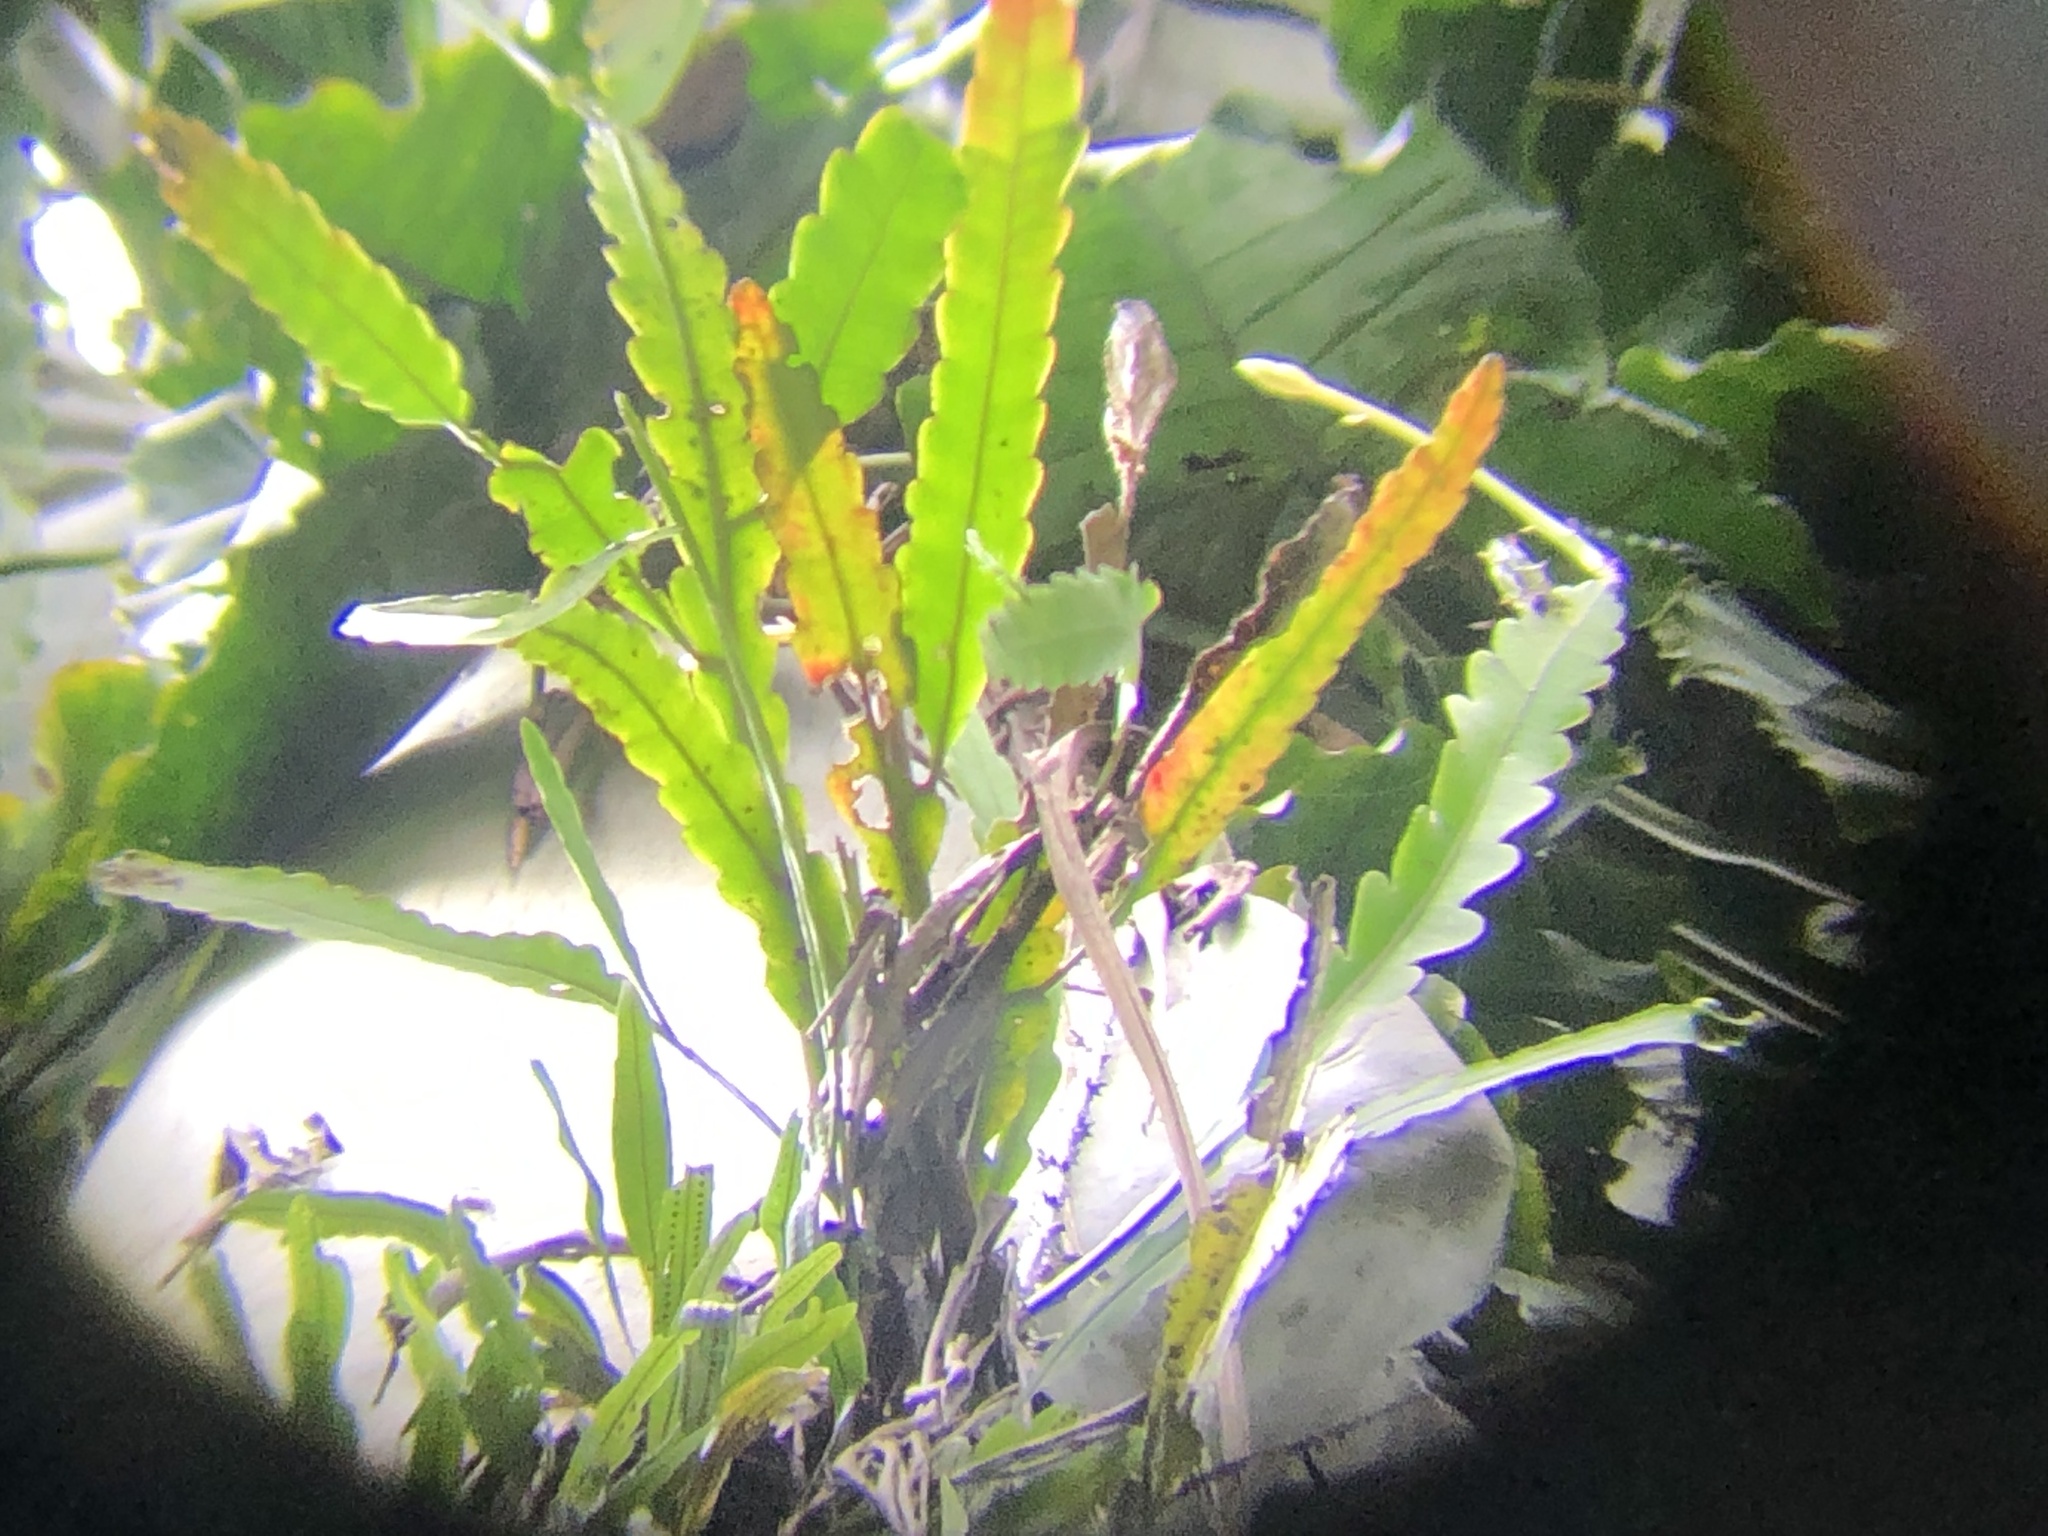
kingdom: Plantae
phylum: Tracheophyta
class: Magnoliopsida
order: Caryophyllales
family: Cactaceae
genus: Epiphyllum
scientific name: Epiphyllum phyllanthus
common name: Climbing cactus
